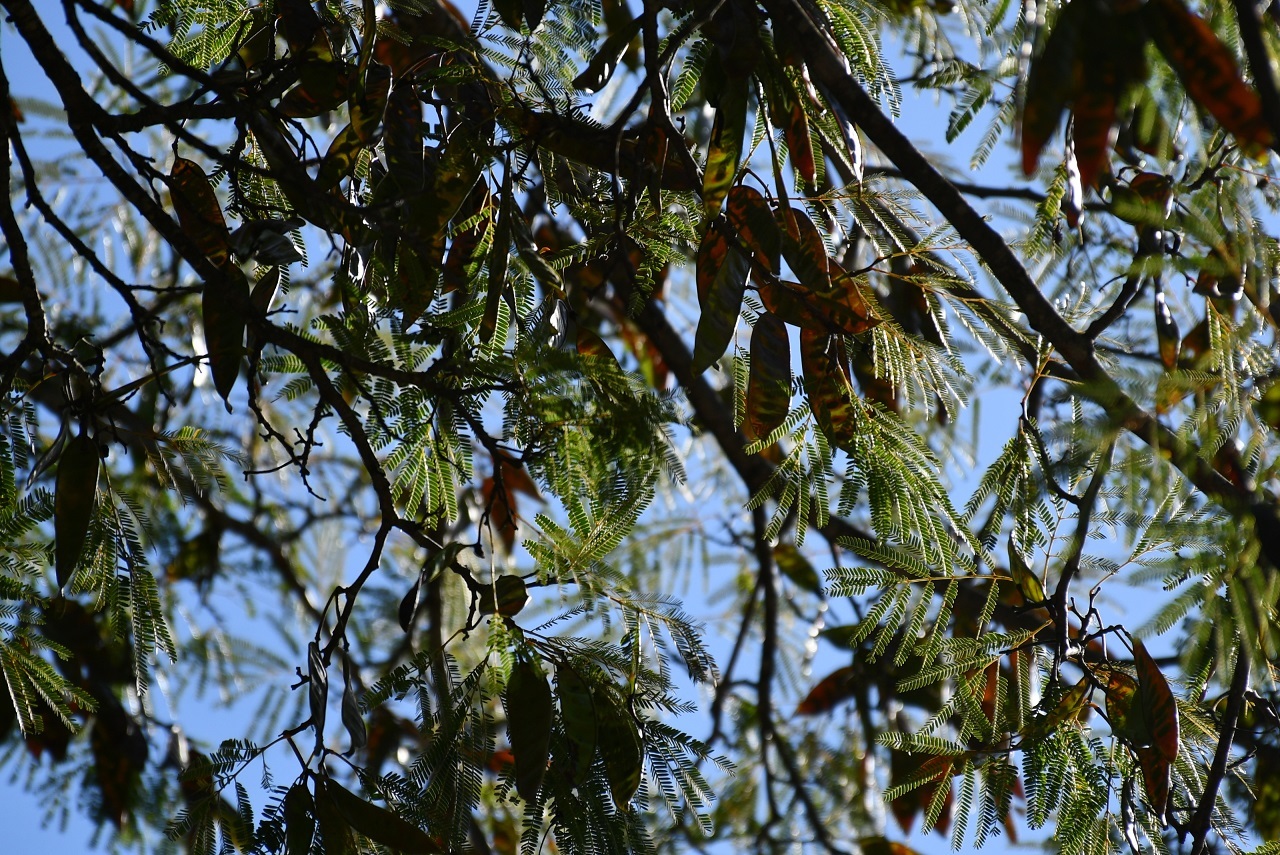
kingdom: Plantae
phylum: Tracheophyta
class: Magnoliopsida
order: Fabales
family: Fabaceae
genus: Lysiloma
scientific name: Lysiloma divaricatum
